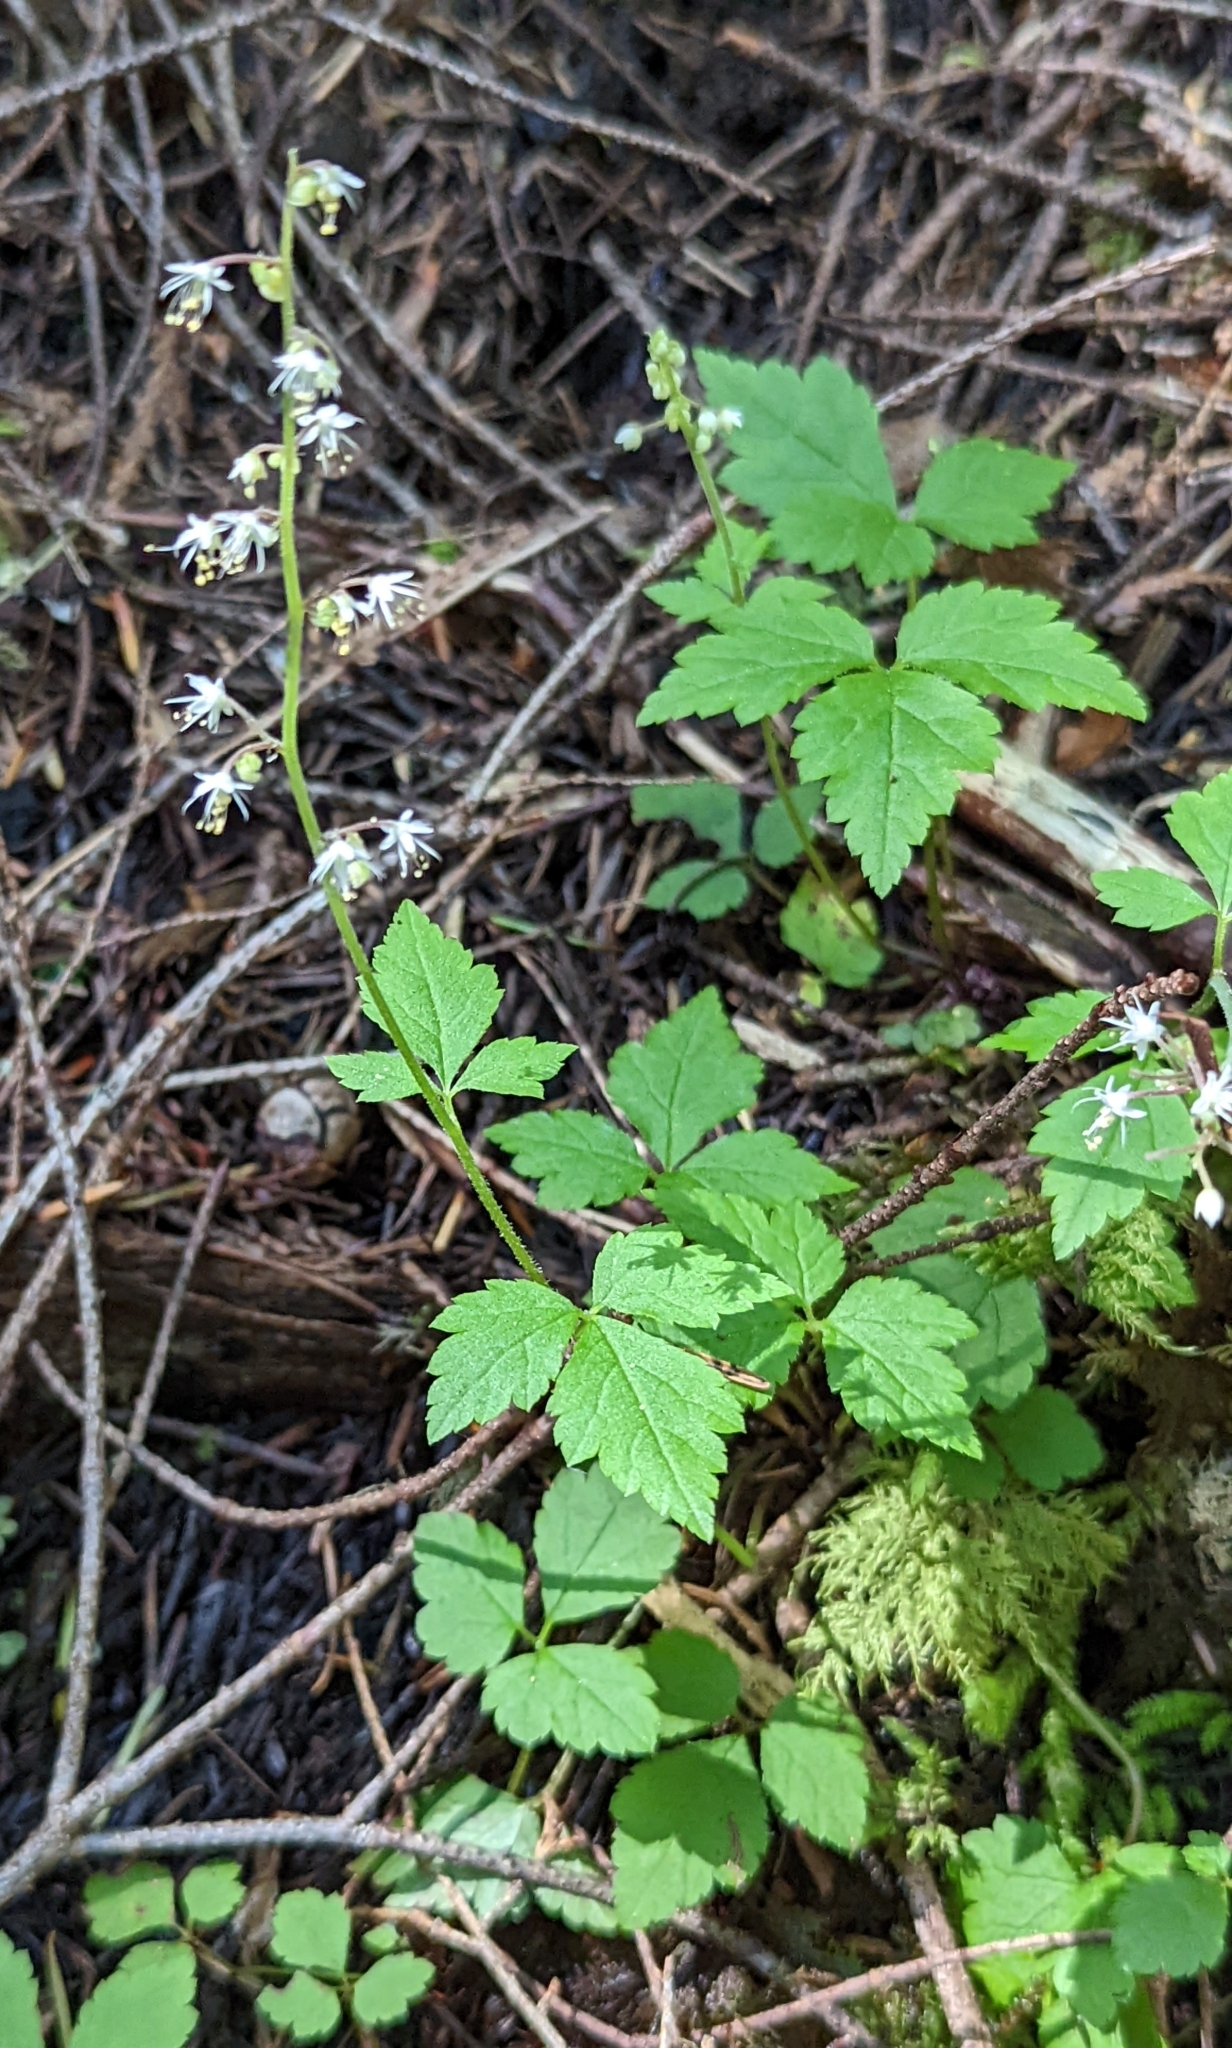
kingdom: Plantae
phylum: Tracheophyta
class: Magnoliopsida
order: Saxifragales
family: Saxifragaceae
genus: Tiarella
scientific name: Tiarella trifoliata
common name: Sugar-scoop
